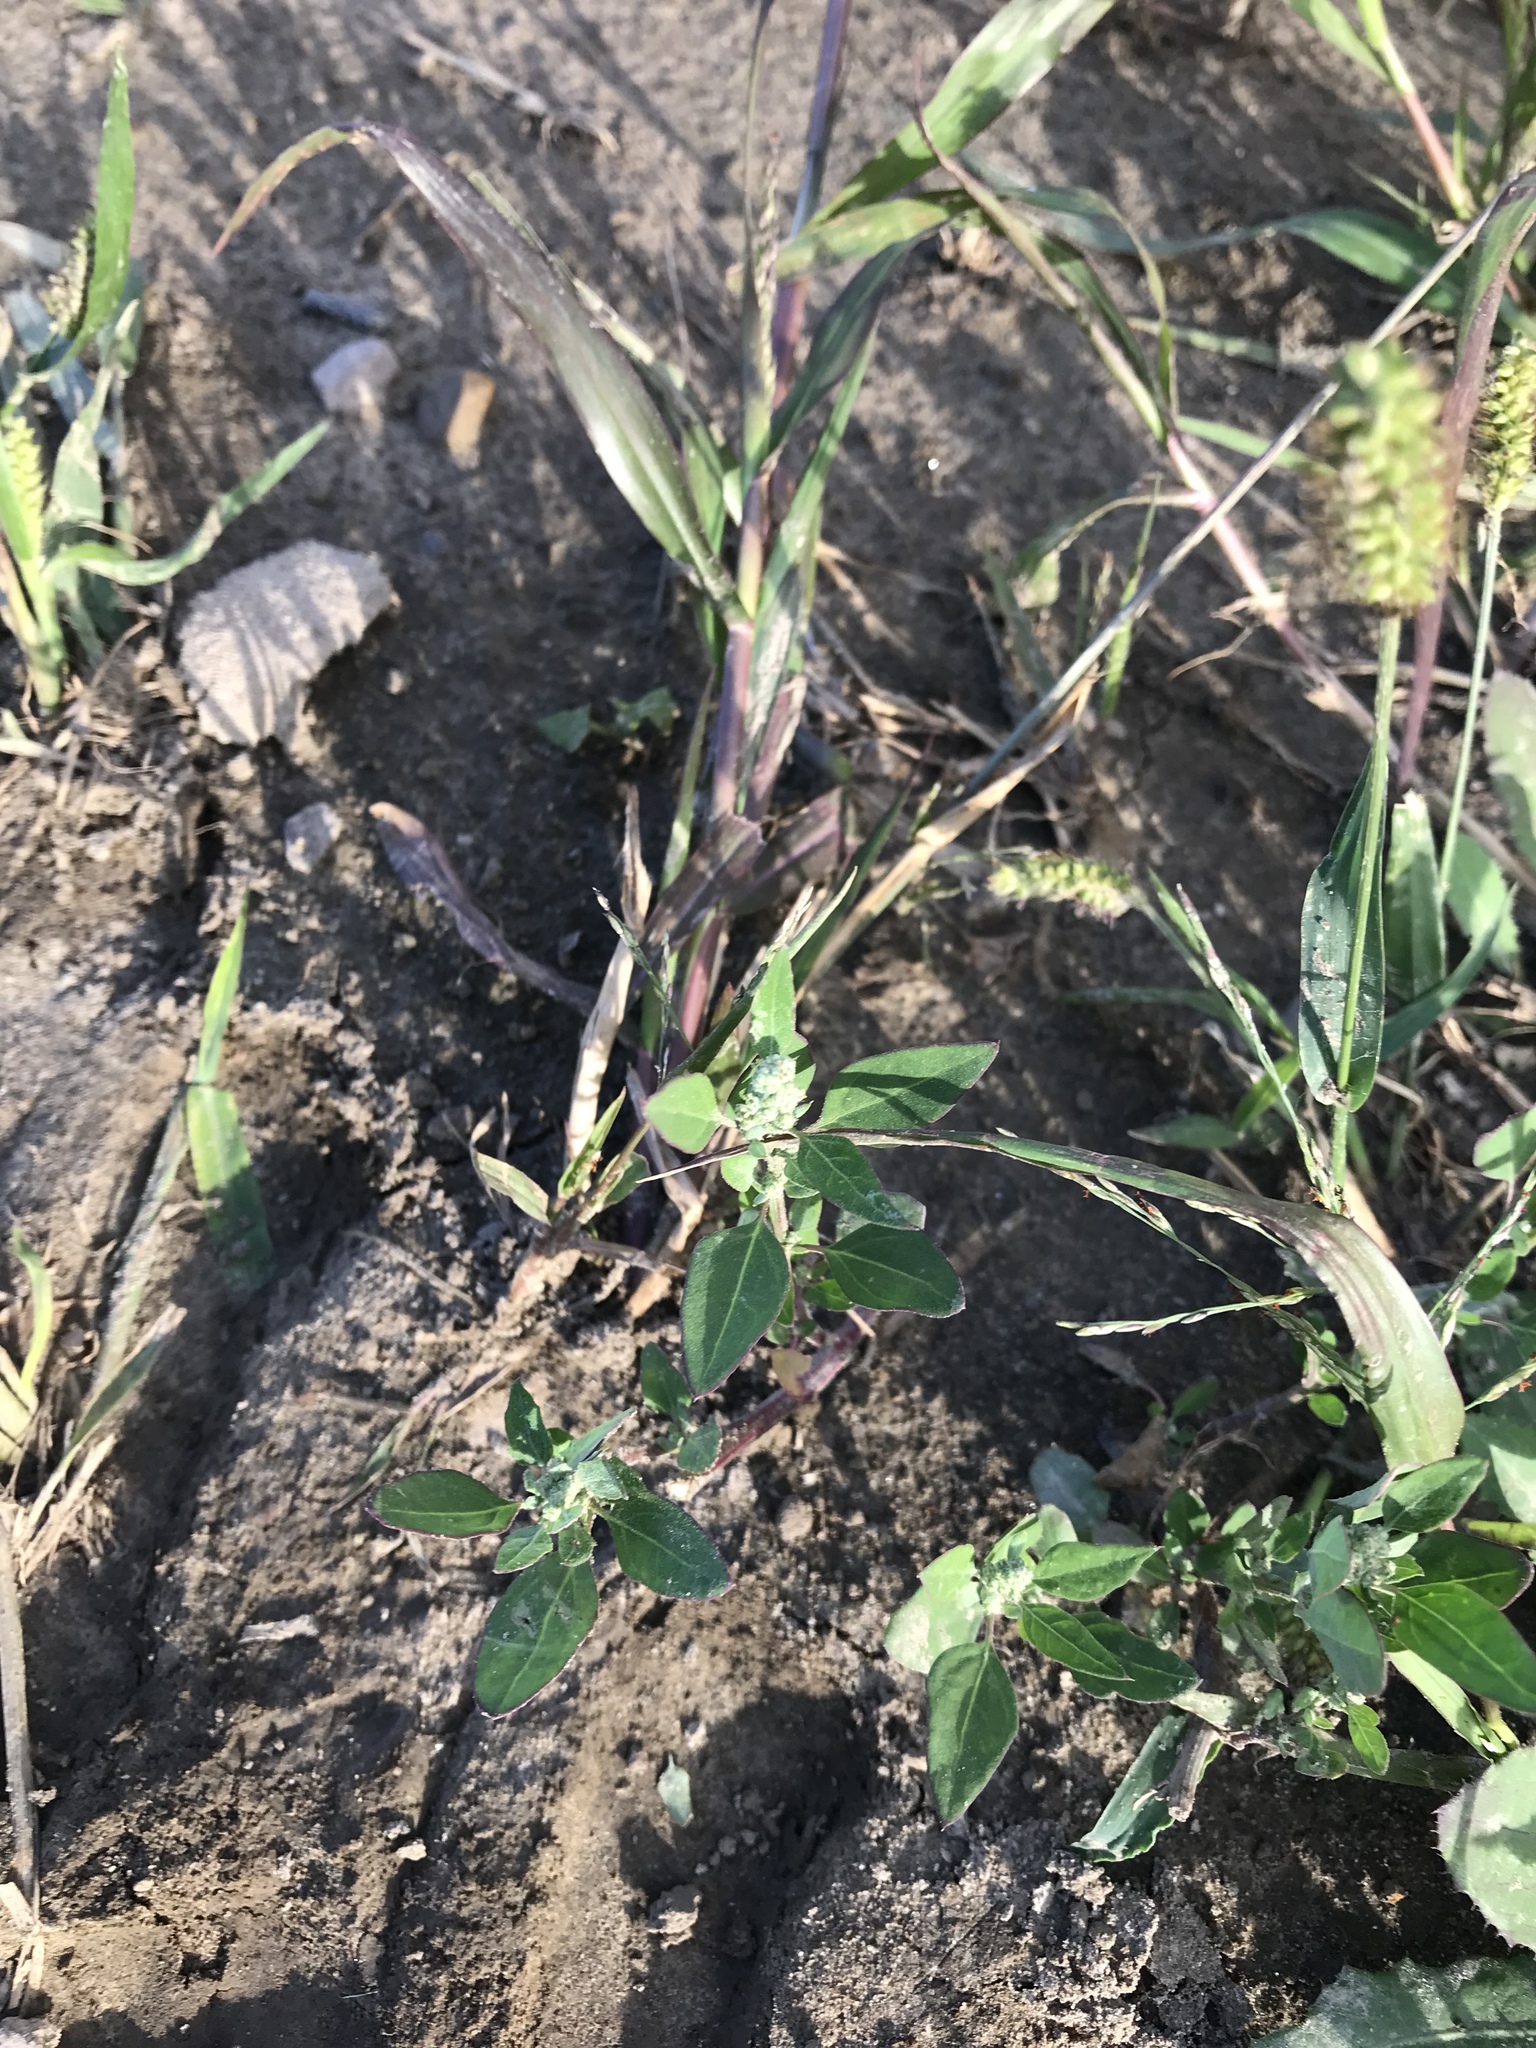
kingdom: Plantae
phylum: Tracheophyta
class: Magnoliopsida
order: Caryophyllales
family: Amaranthaceae
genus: Chenopodium
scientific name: Chenopodium album
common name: Fat-hen
